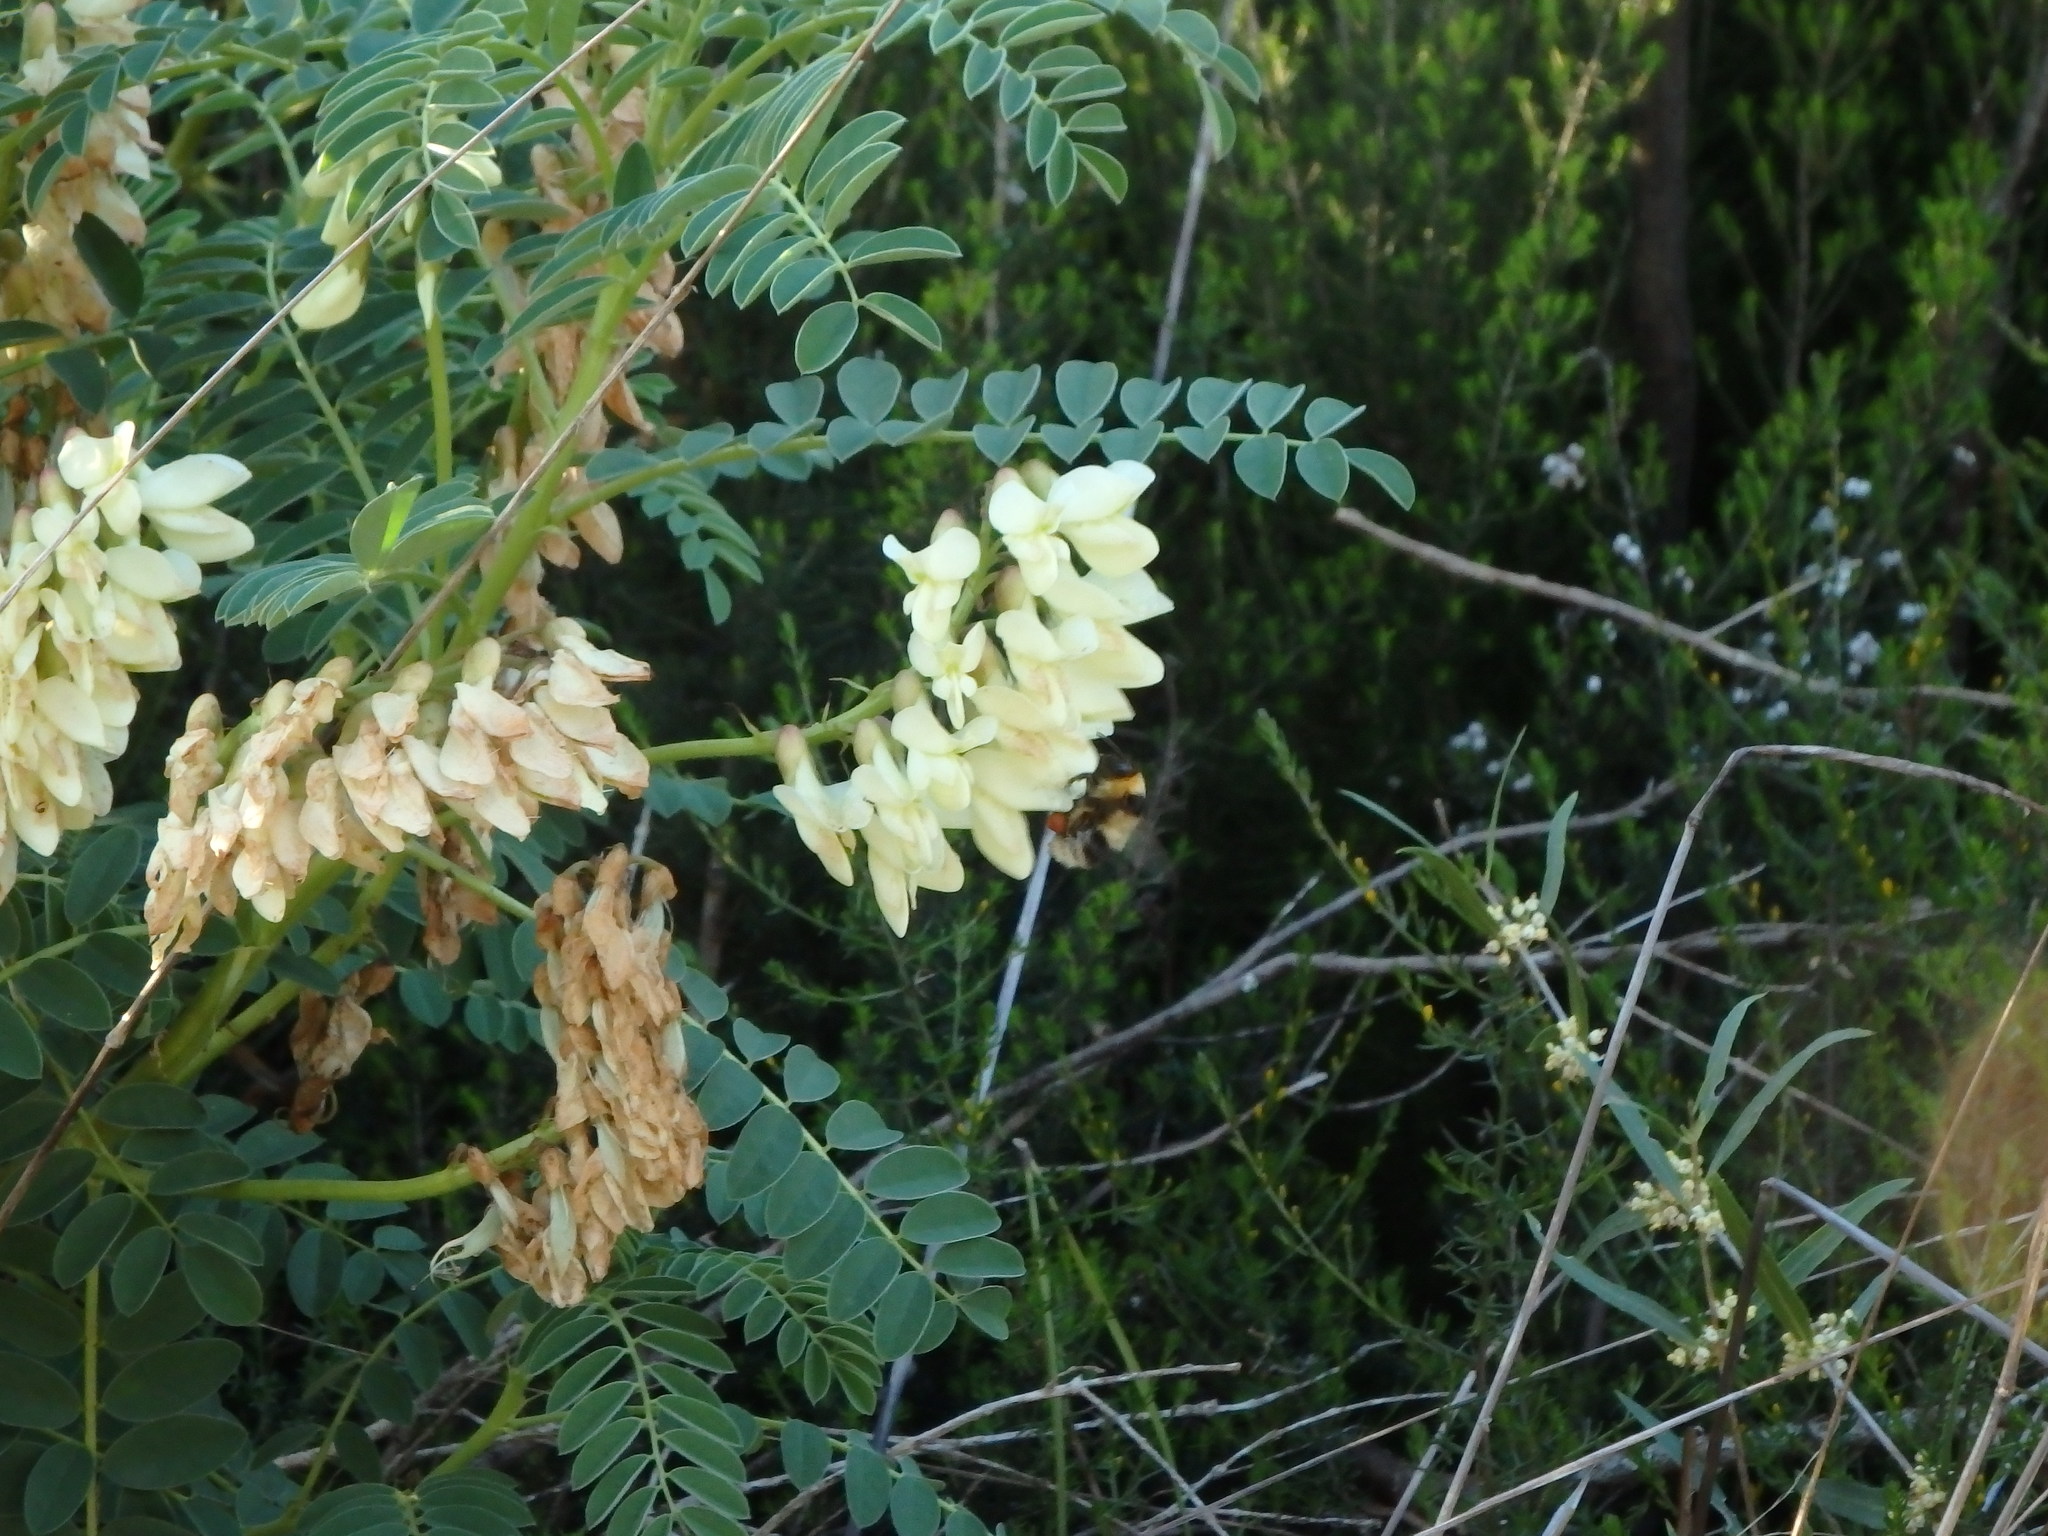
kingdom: Animalia
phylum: Arthropoda
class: Insecta
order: Hymenoptera
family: Apidae
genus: Bombus
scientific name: Bombus ruderatus
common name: Large garden bumblebee
